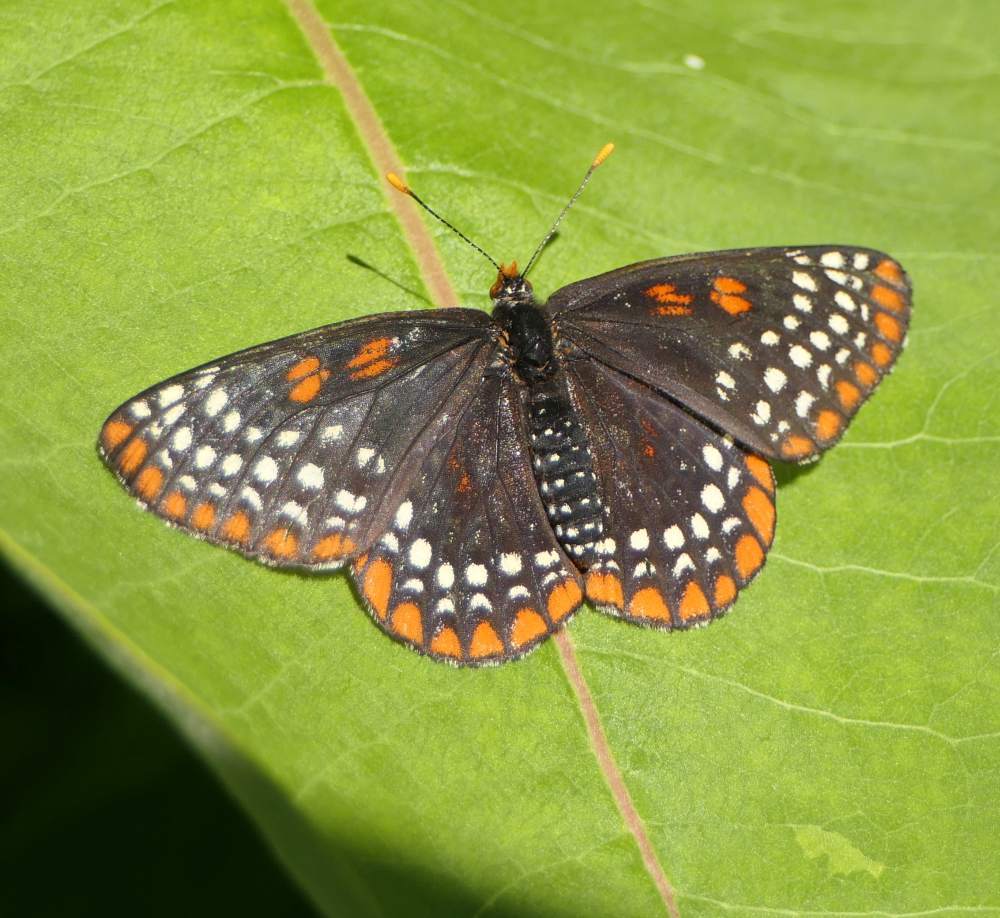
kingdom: Animalia
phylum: Arthropoda
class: Insecta
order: Lepidoptera
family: Nymphalidae
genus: Euphydryas
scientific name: Euphydryas phaeton
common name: Baltimore checkerspot
